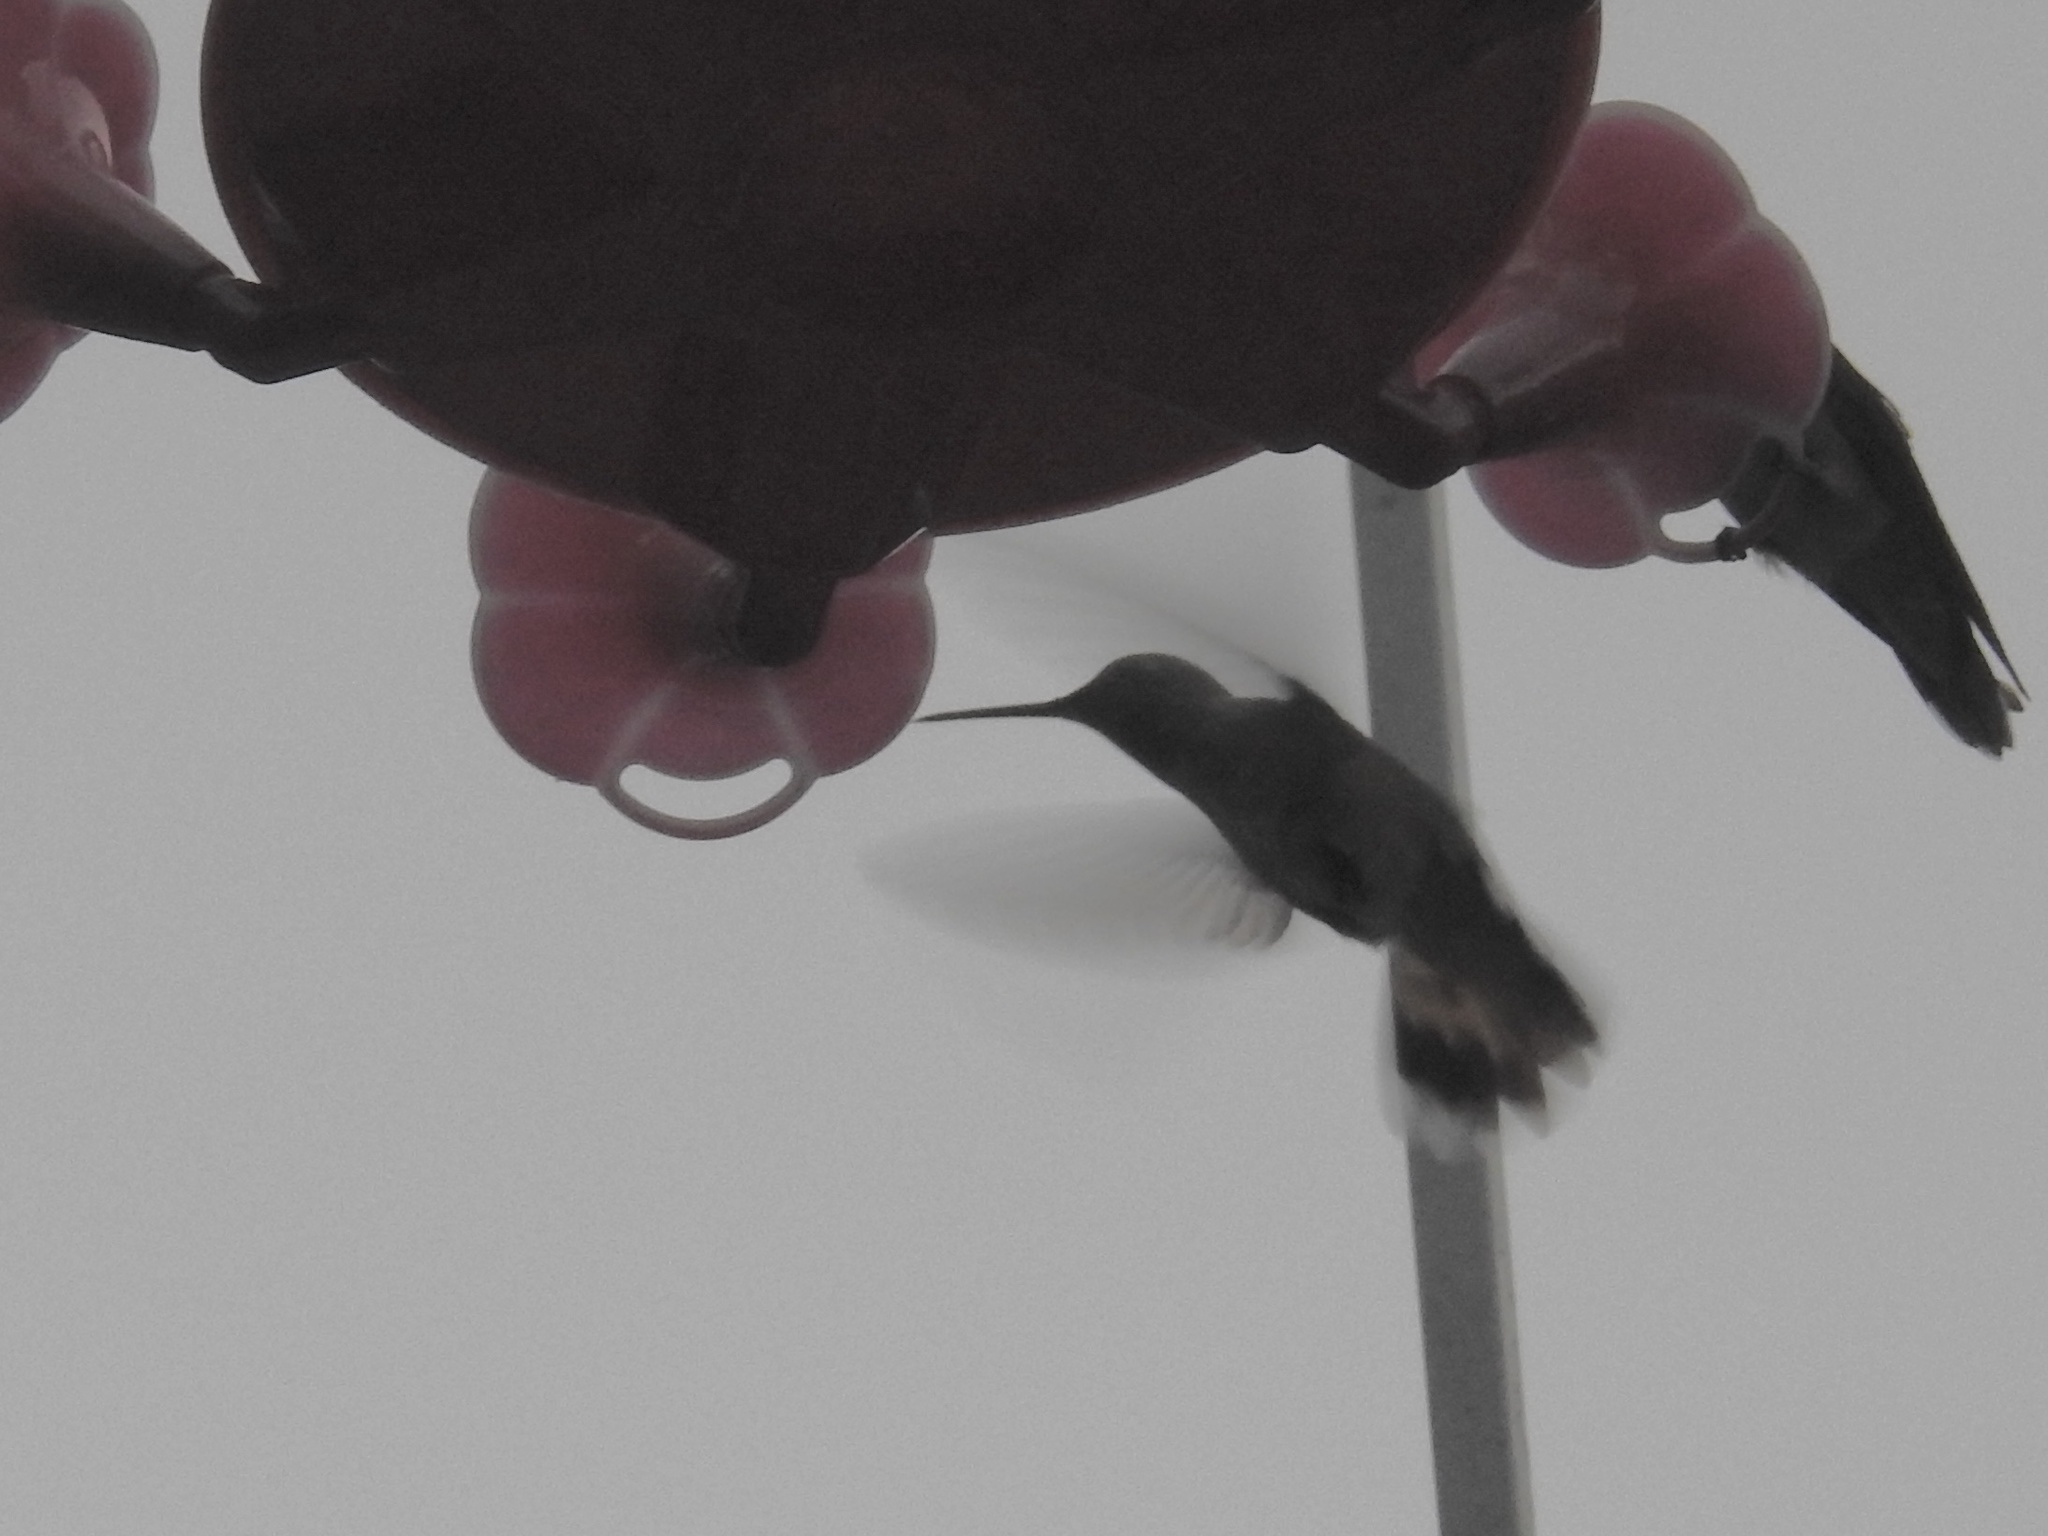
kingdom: Animalia
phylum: Chordata
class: Aves
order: Apodiformes
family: Trochilidae
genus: Selasphorus
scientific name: Selasphorus platycercus
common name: Broad-tailed hummingbird
